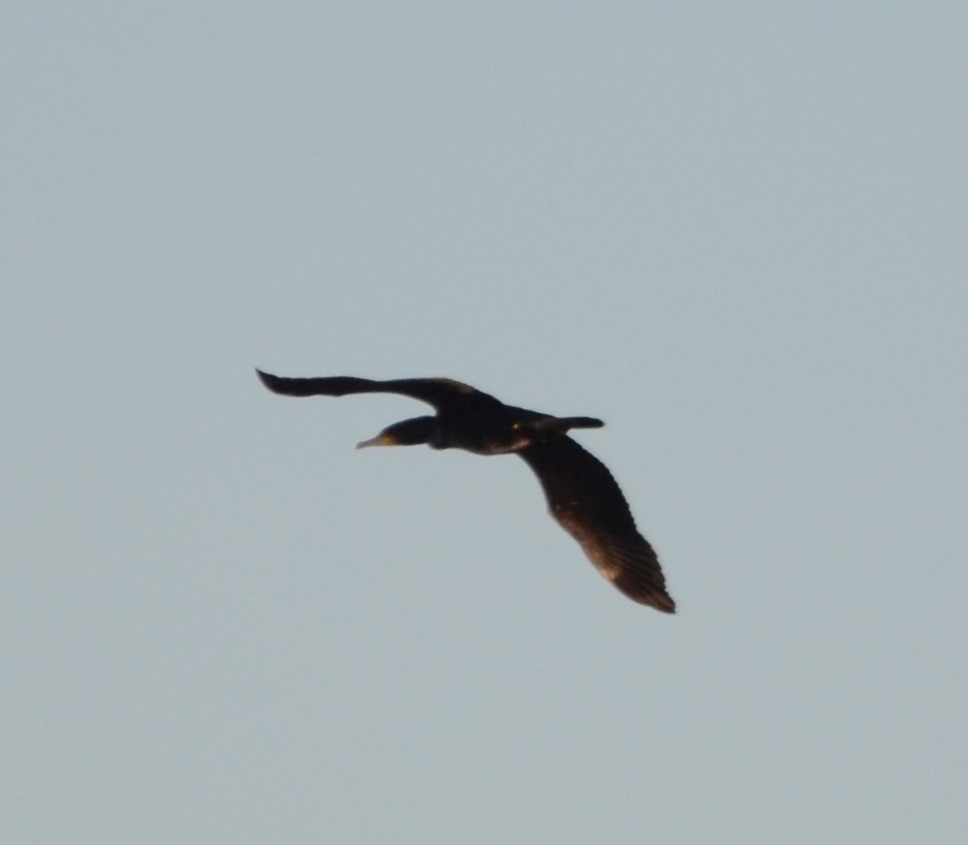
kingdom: Animalia
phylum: Chordata
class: Aves
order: Suliformes
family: Phalacrocoracidae
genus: Phalacrocorax
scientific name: Phalacrocorax carbo
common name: Great cormorant
